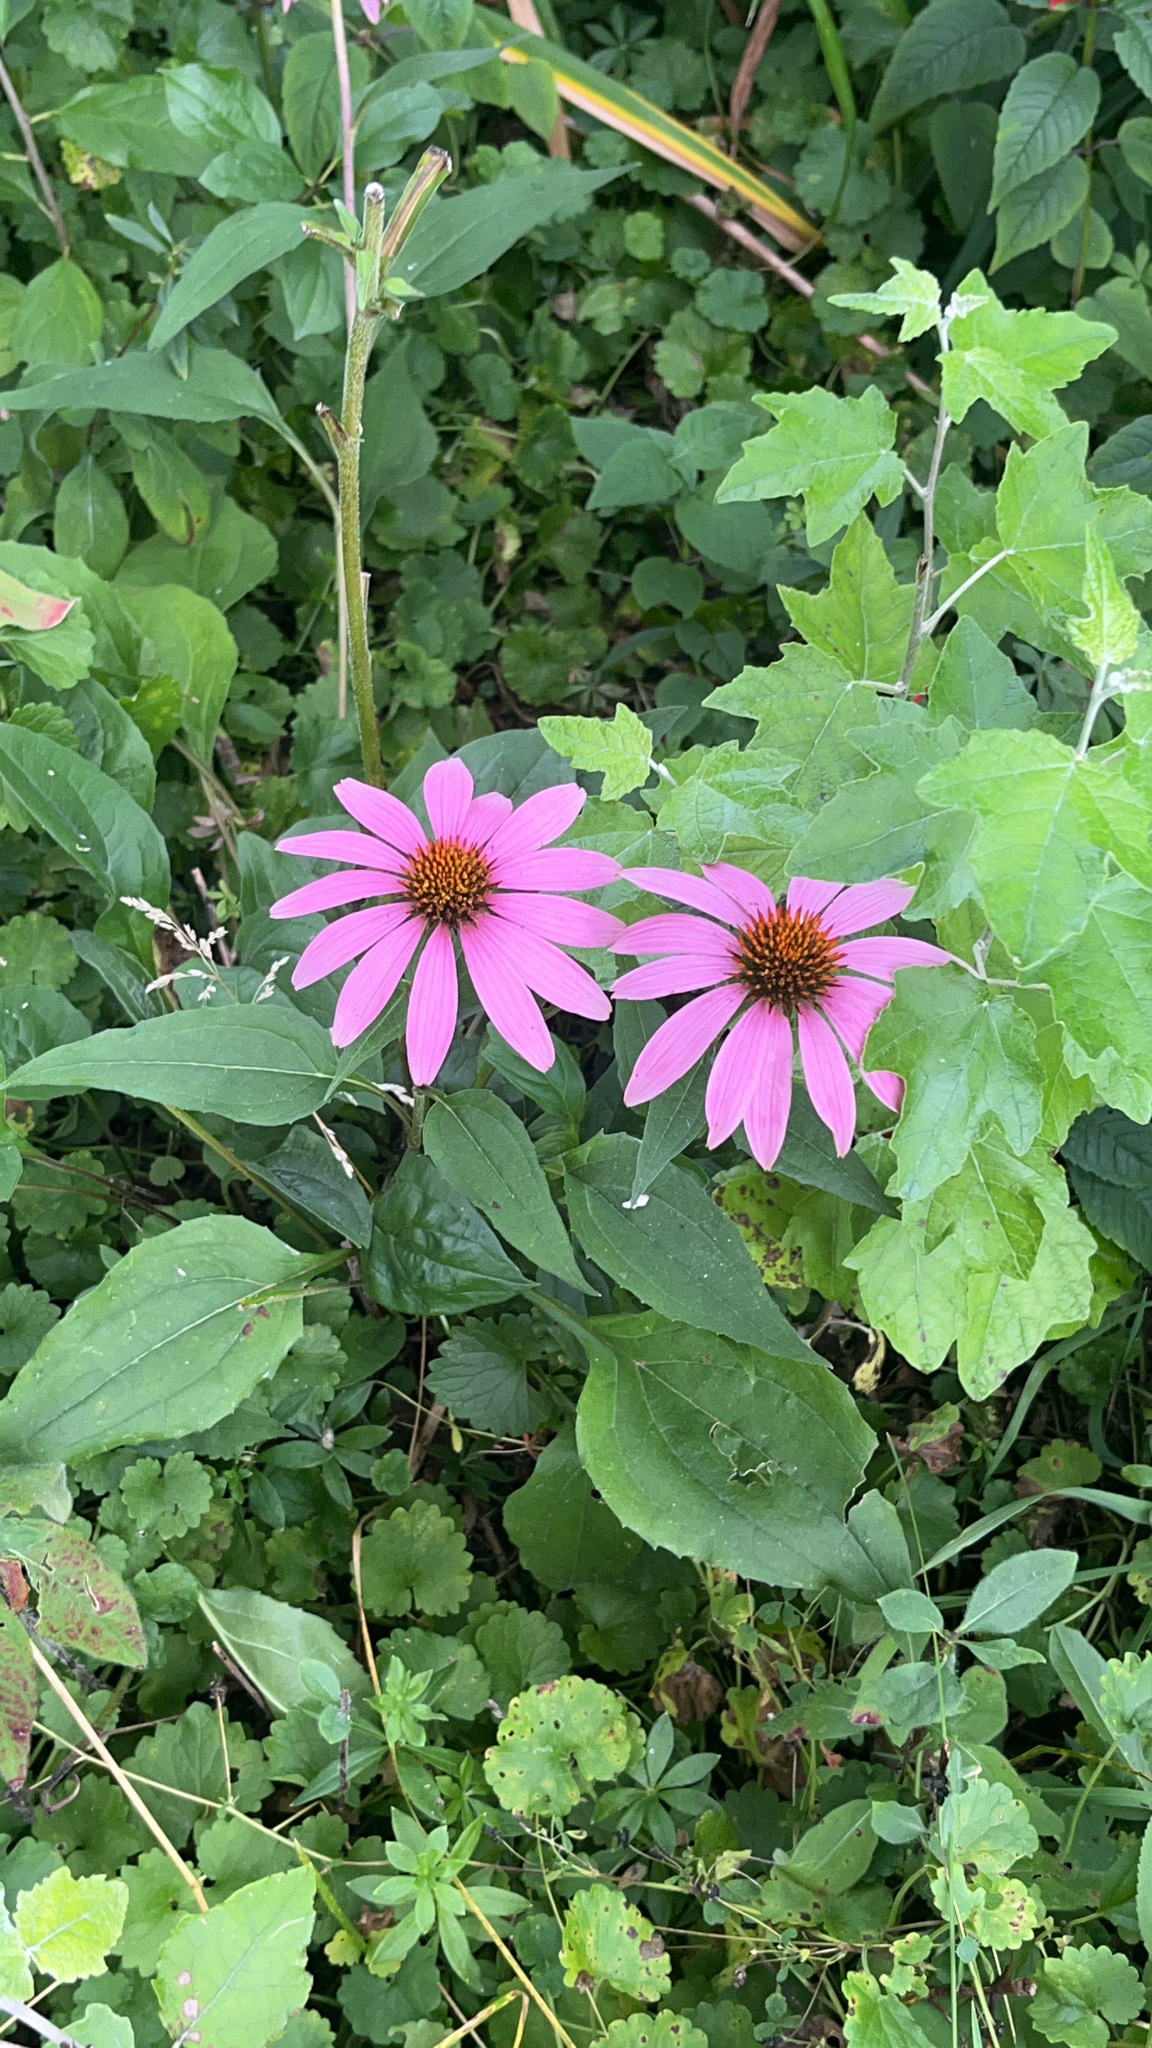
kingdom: Plantae
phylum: Tracheophyta
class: Magnoliopsida
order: Asterales
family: Asteraceae
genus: Echinacea
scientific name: Echinacea purpurea
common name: Broad-leaved purple coneflower
